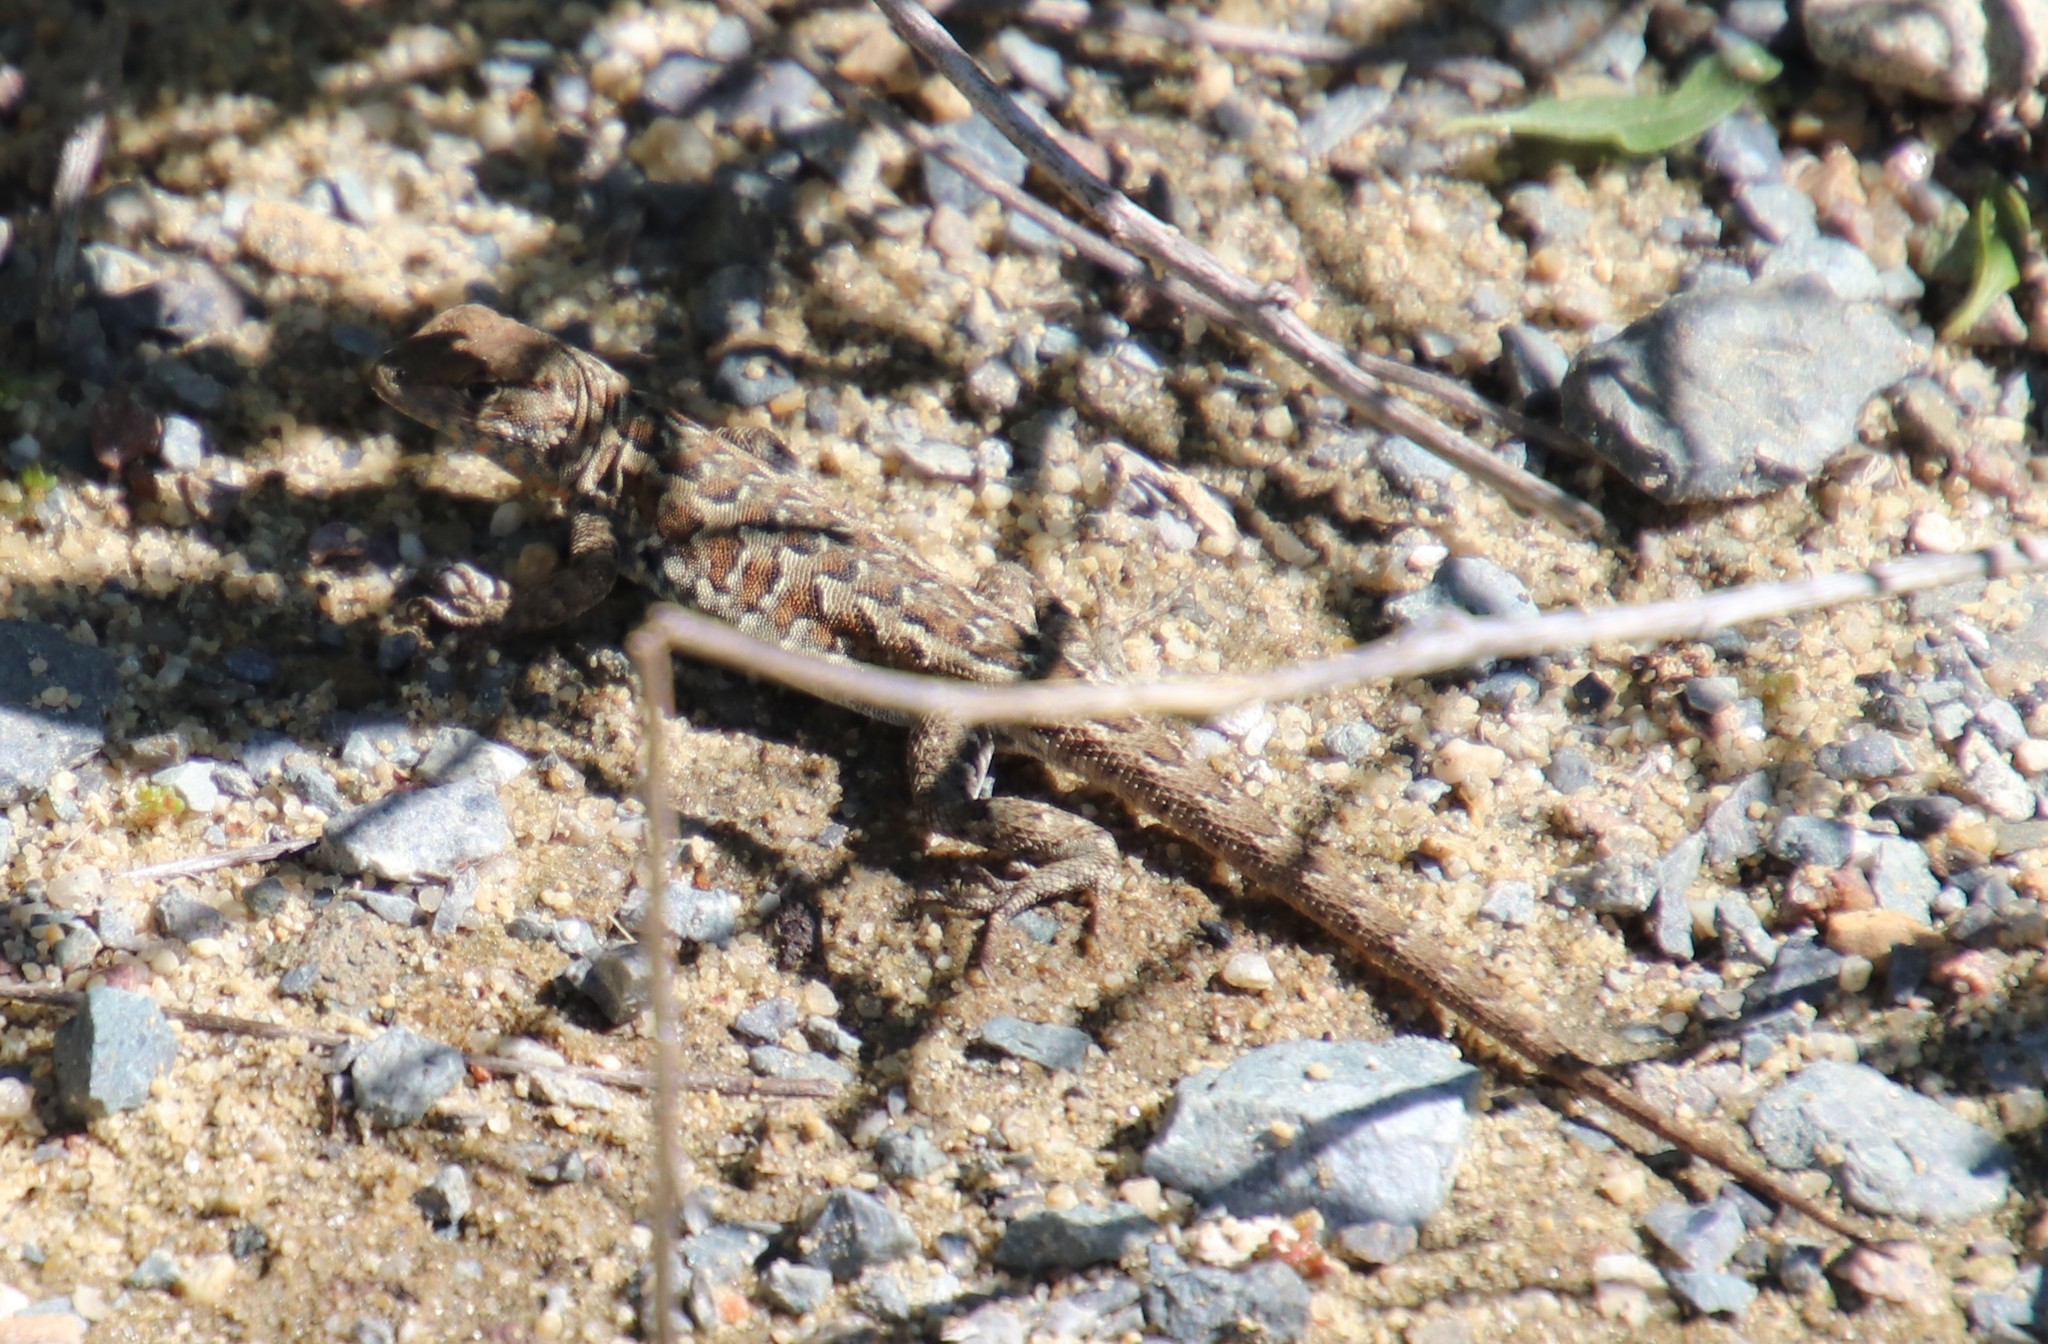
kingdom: Animalia
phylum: Chordata
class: Squamata
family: Phrynosomatidae
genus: Uta
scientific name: Uta stansburiana
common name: Side-blotched lizard
